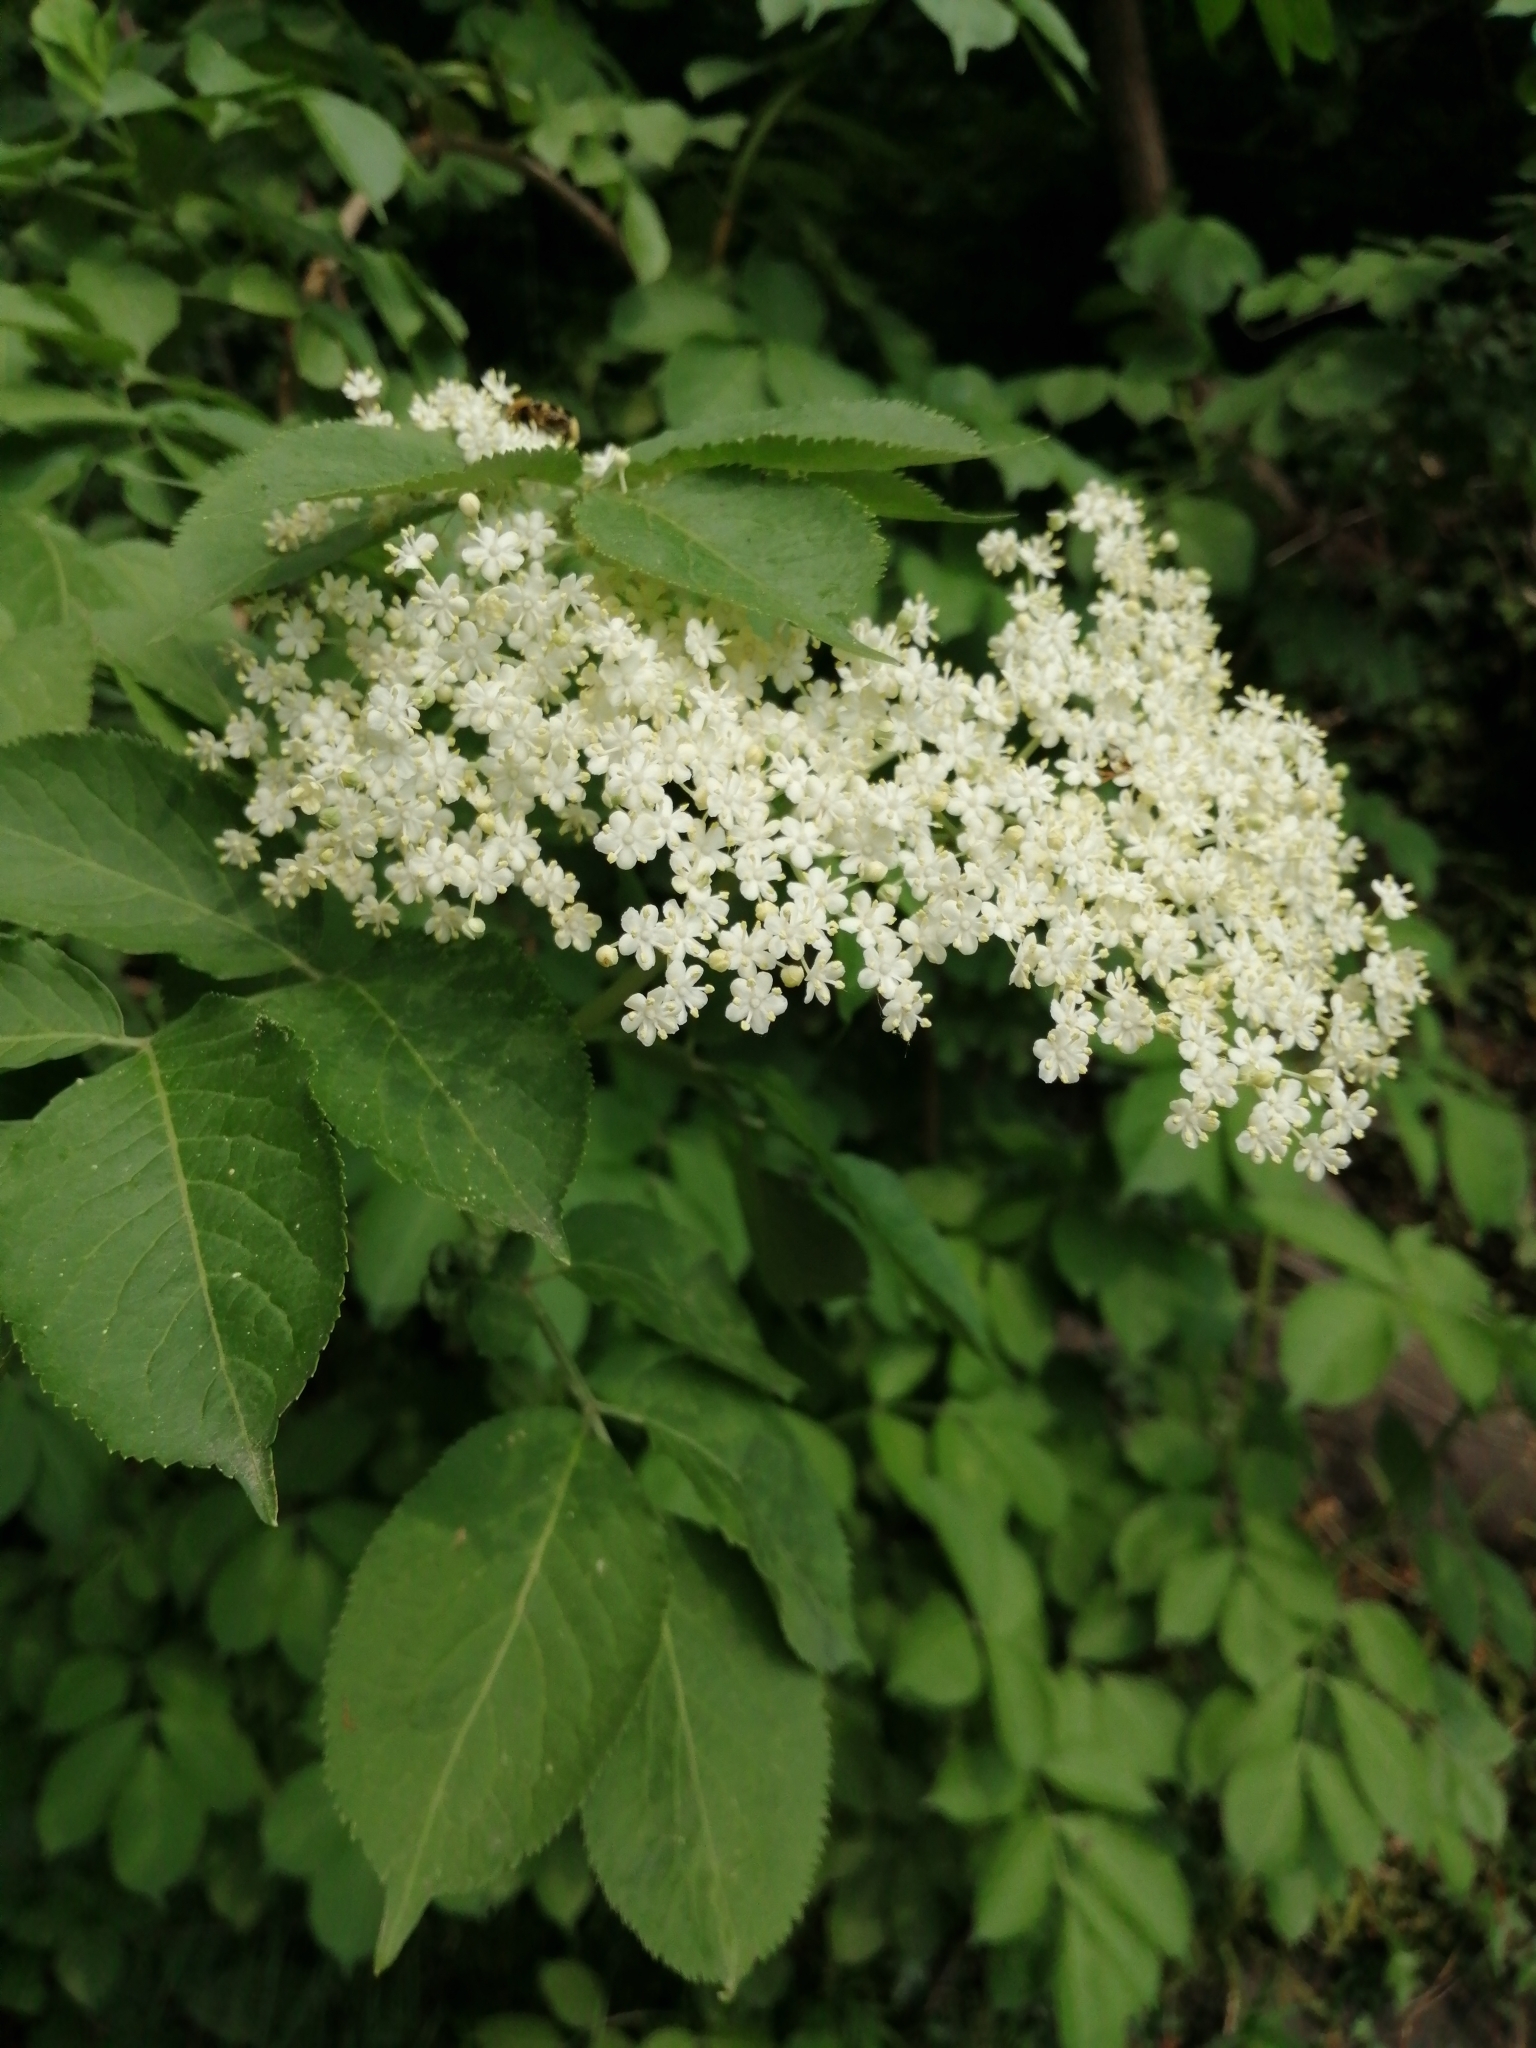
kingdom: Plantae
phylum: Tracheophyta
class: Magnoliopsida
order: Dipsacales
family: Viburnaceae
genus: Sambucus
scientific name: Sambucus nigra
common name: Elder
